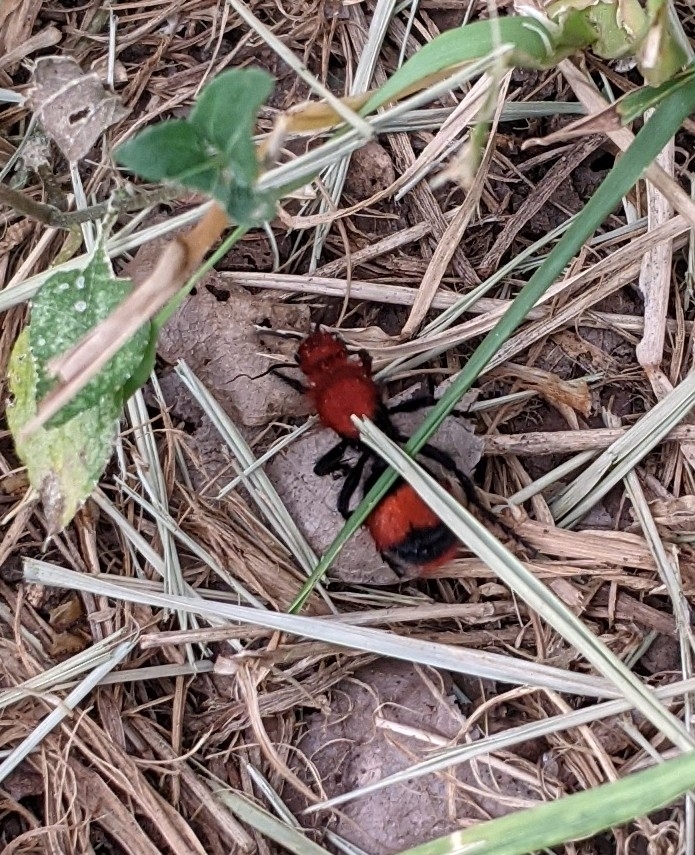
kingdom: Animalia
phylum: Arthropoda
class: Insecta
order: Hymenoptera
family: Mutillidae
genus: Dasymutilla
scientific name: Dasymutilla occidentalis
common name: Common eastern velvet ant
